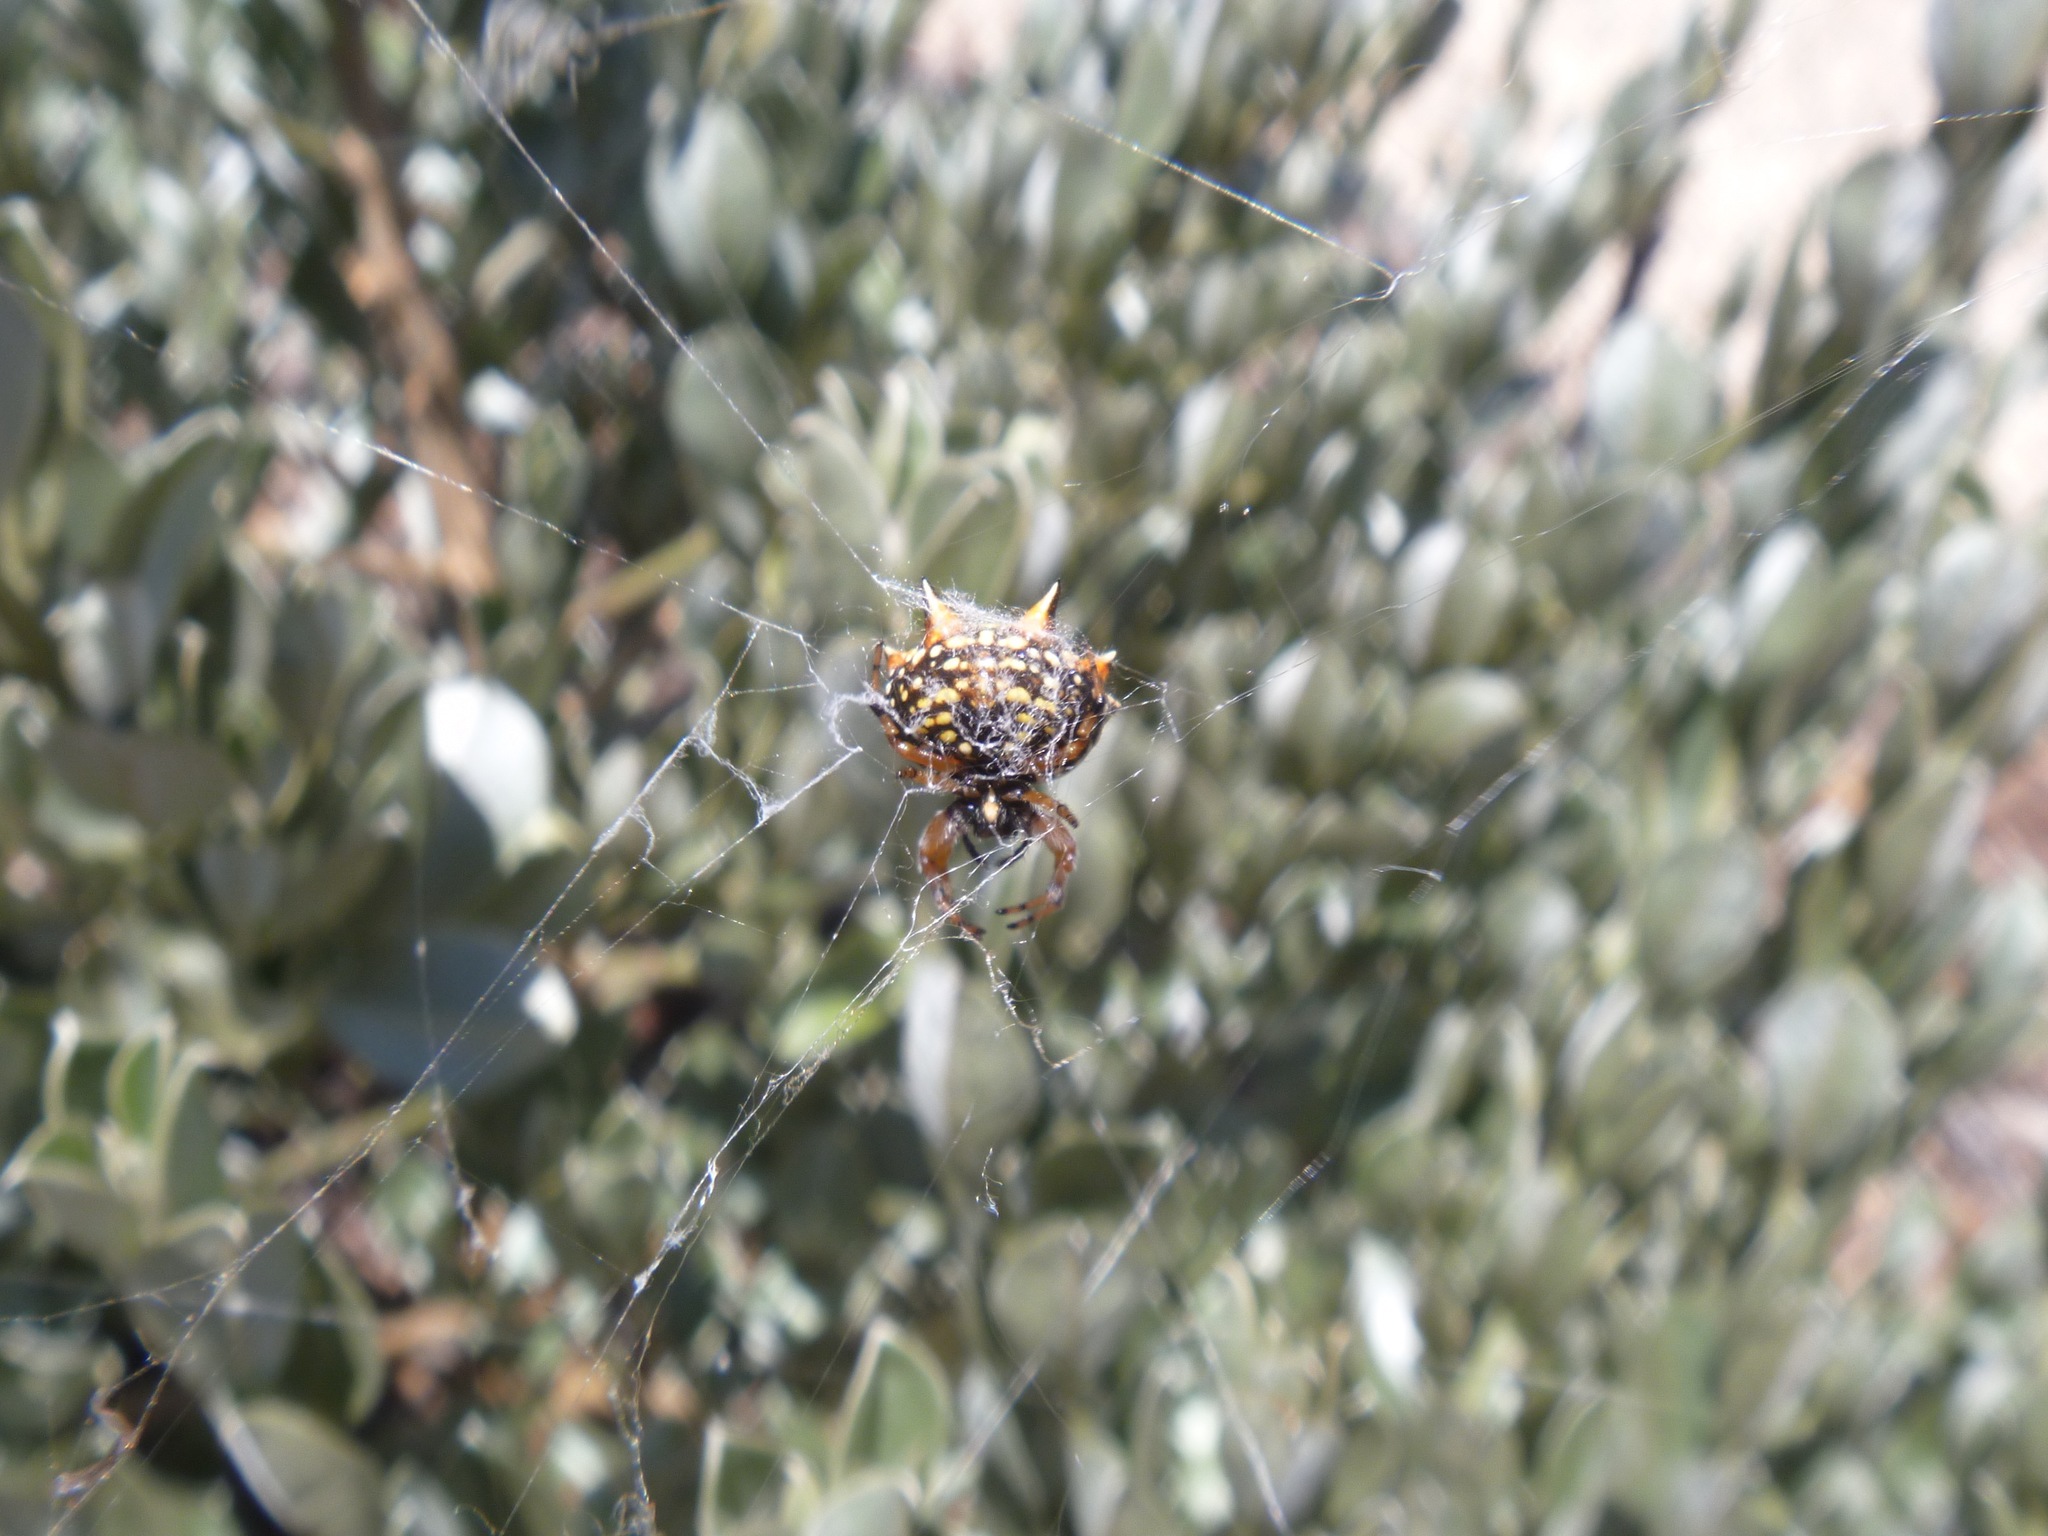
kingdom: Animalia
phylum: Arthropoda
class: Arachnida
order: Araneae
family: Araneidae
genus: Austracantha
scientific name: Austracantha minax
